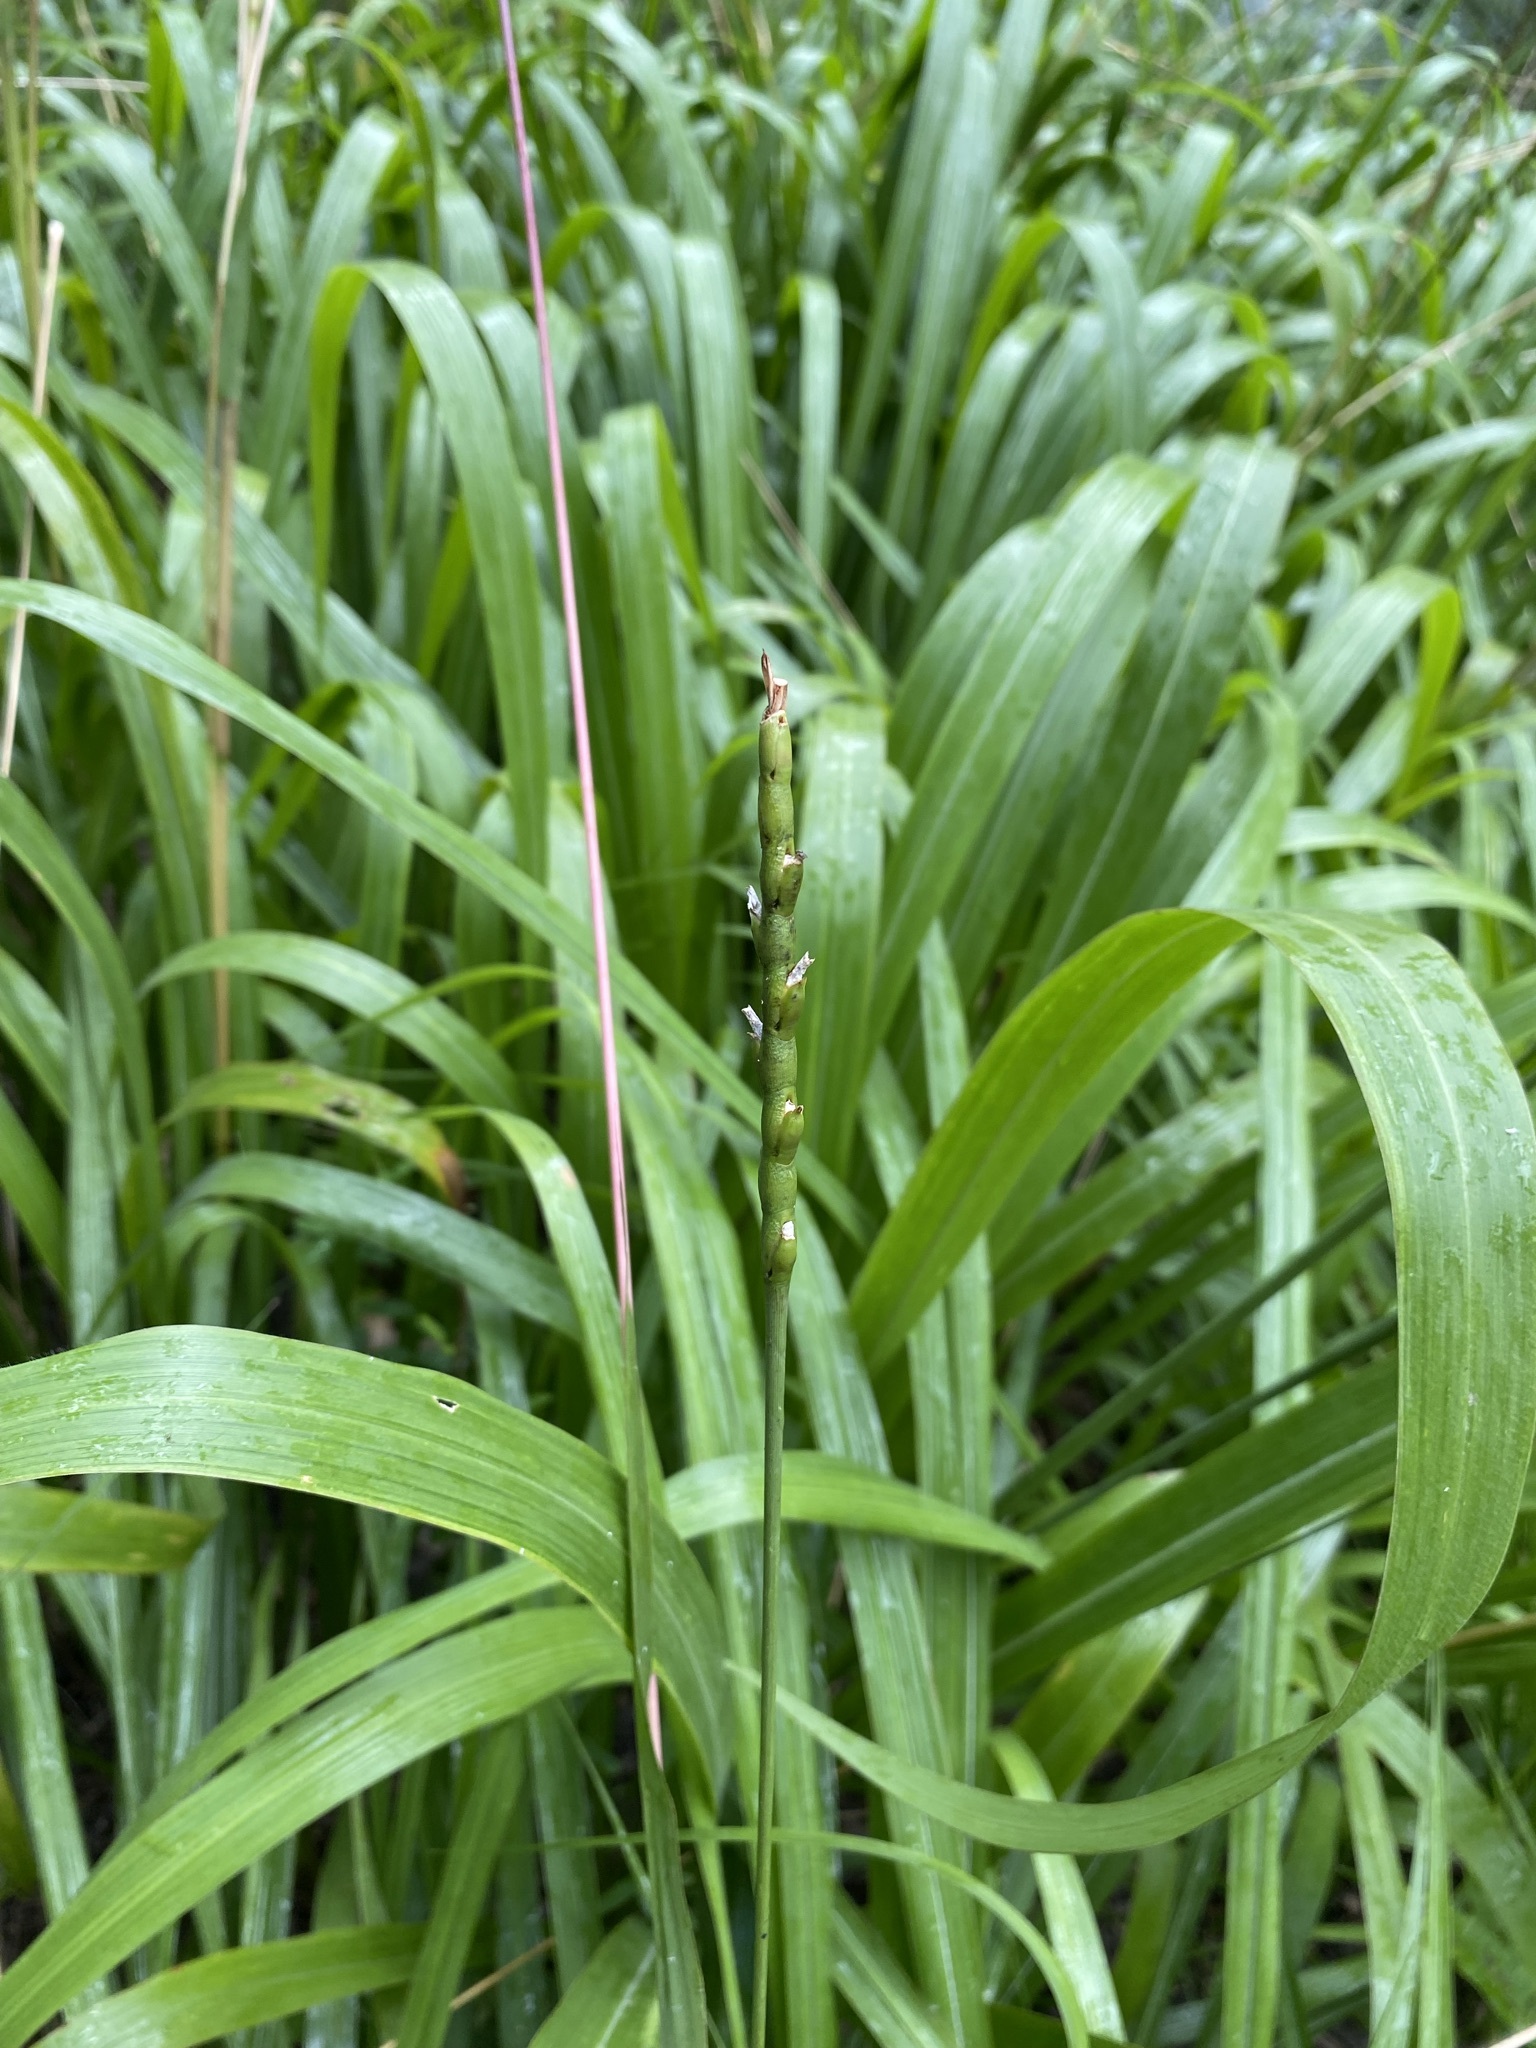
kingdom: Plantae
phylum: Tracheophyta
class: Liliopsida
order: Poales
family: Poaceae
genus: Tripsacum
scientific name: Tripsacum dactyloides
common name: Buffalo-grass
